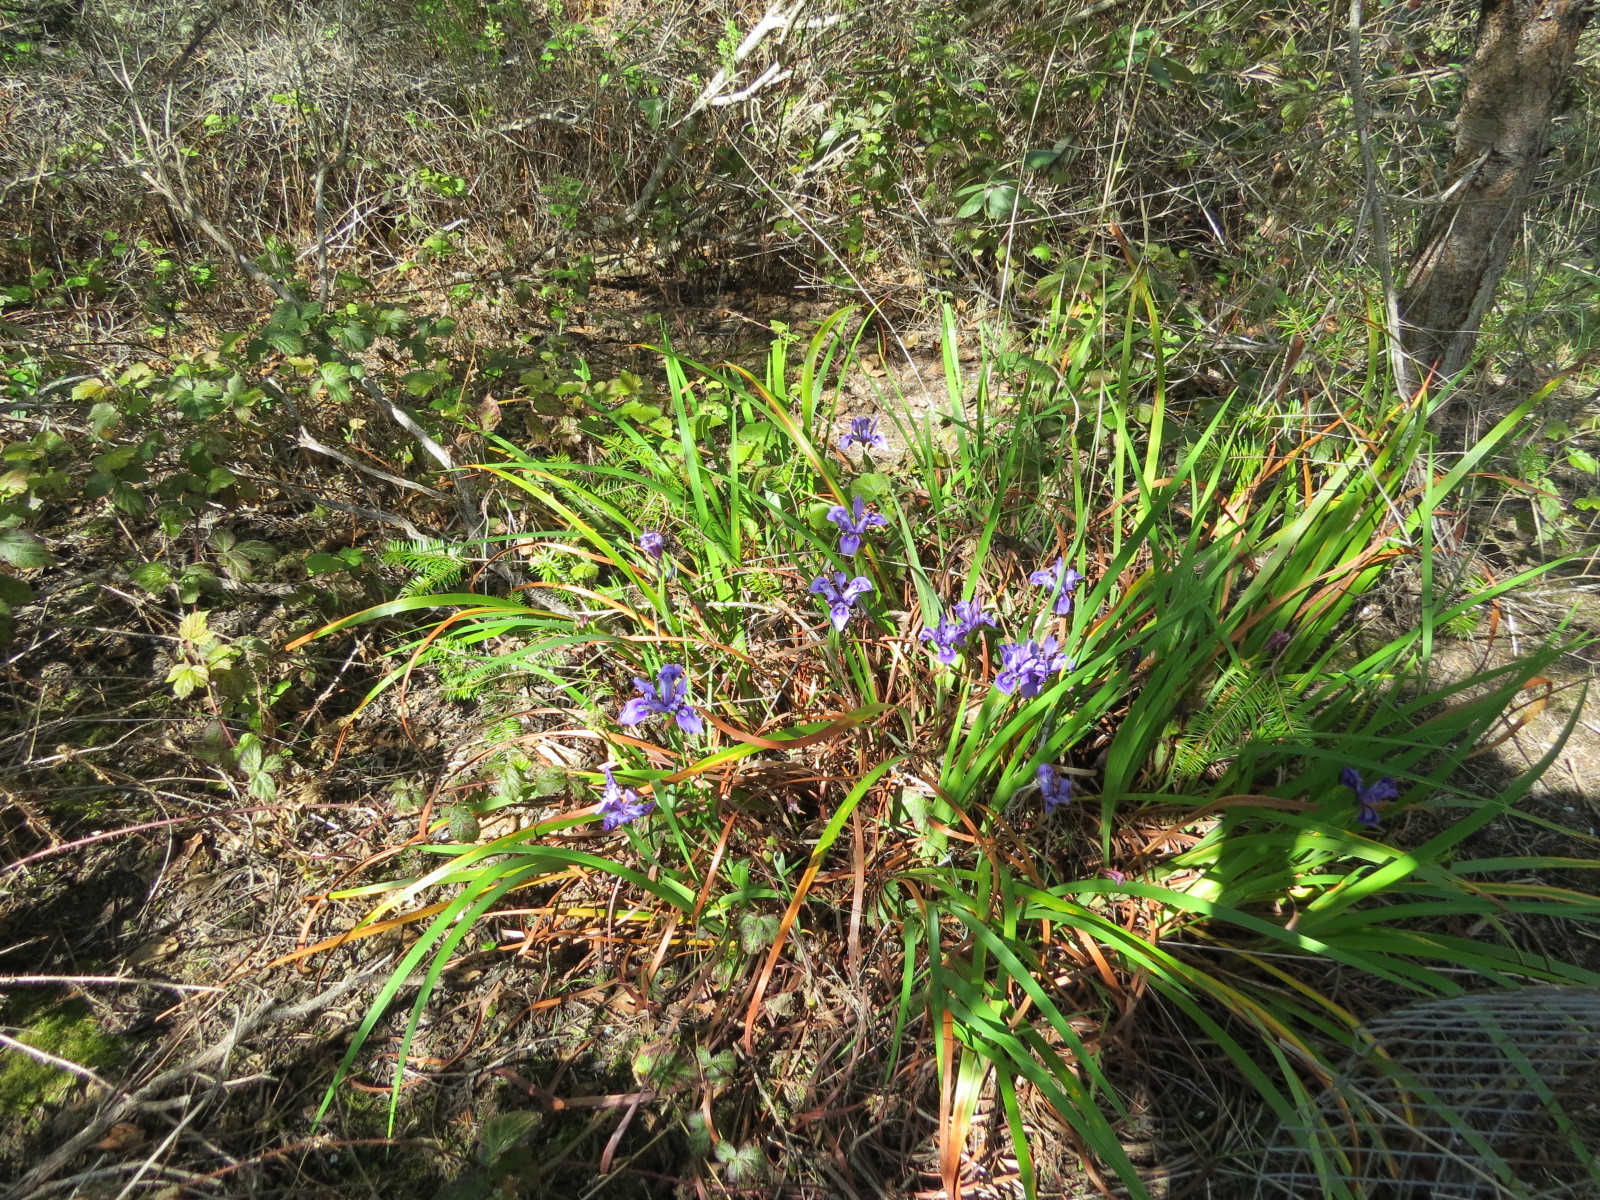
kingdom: Plantae
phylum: Tracheophyta
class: Liliopsida
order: Asparagales
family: Iridaceae
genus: Iris
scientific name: Iris douglasiana
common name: Marin iris
